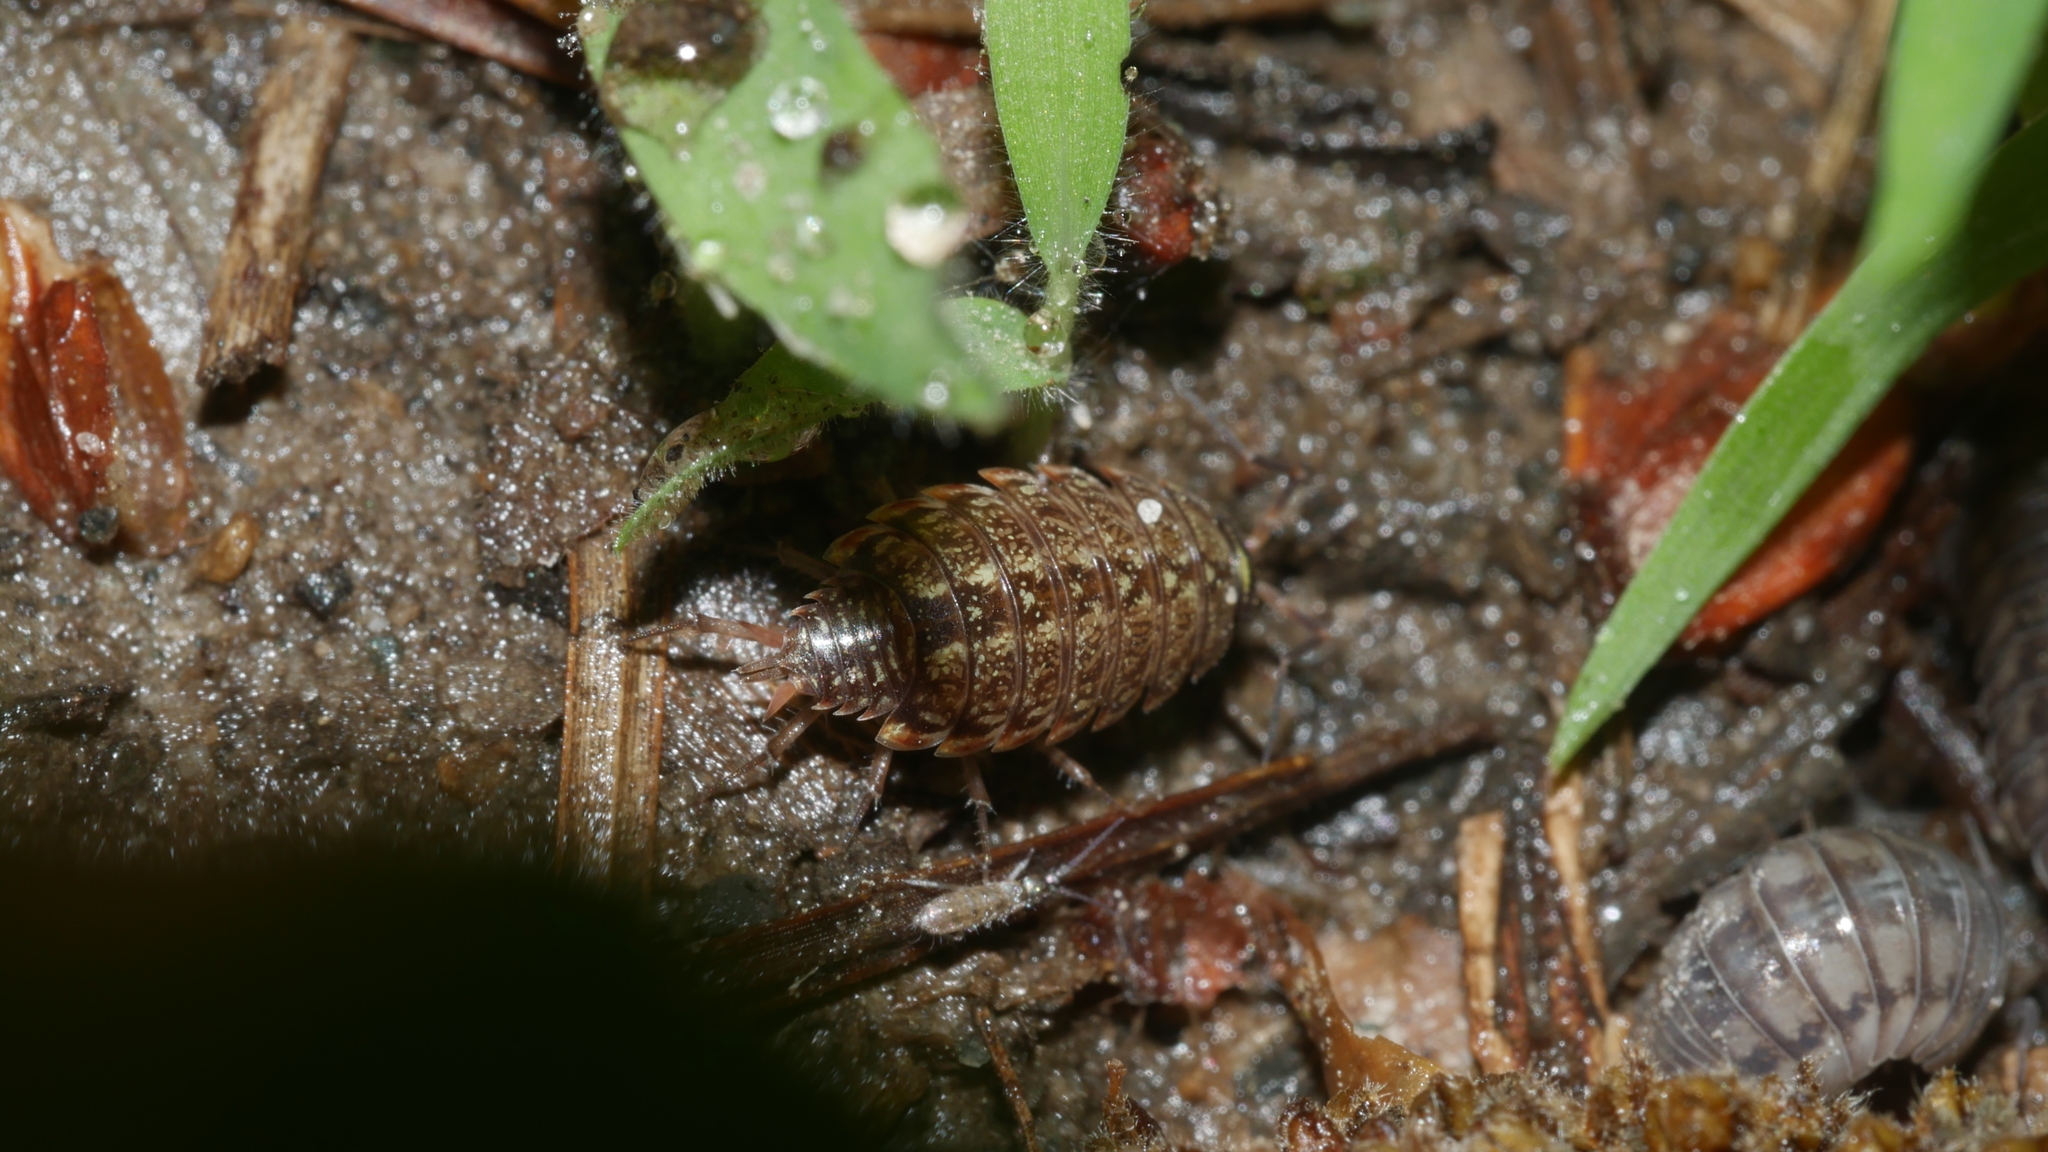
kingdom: Animalia
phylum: Arthropoda
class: Malacostraca
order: Isopoda
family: Philosciidae
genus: Philoscia
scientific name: Philoscia muscorum
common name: Common striped woodlouse
